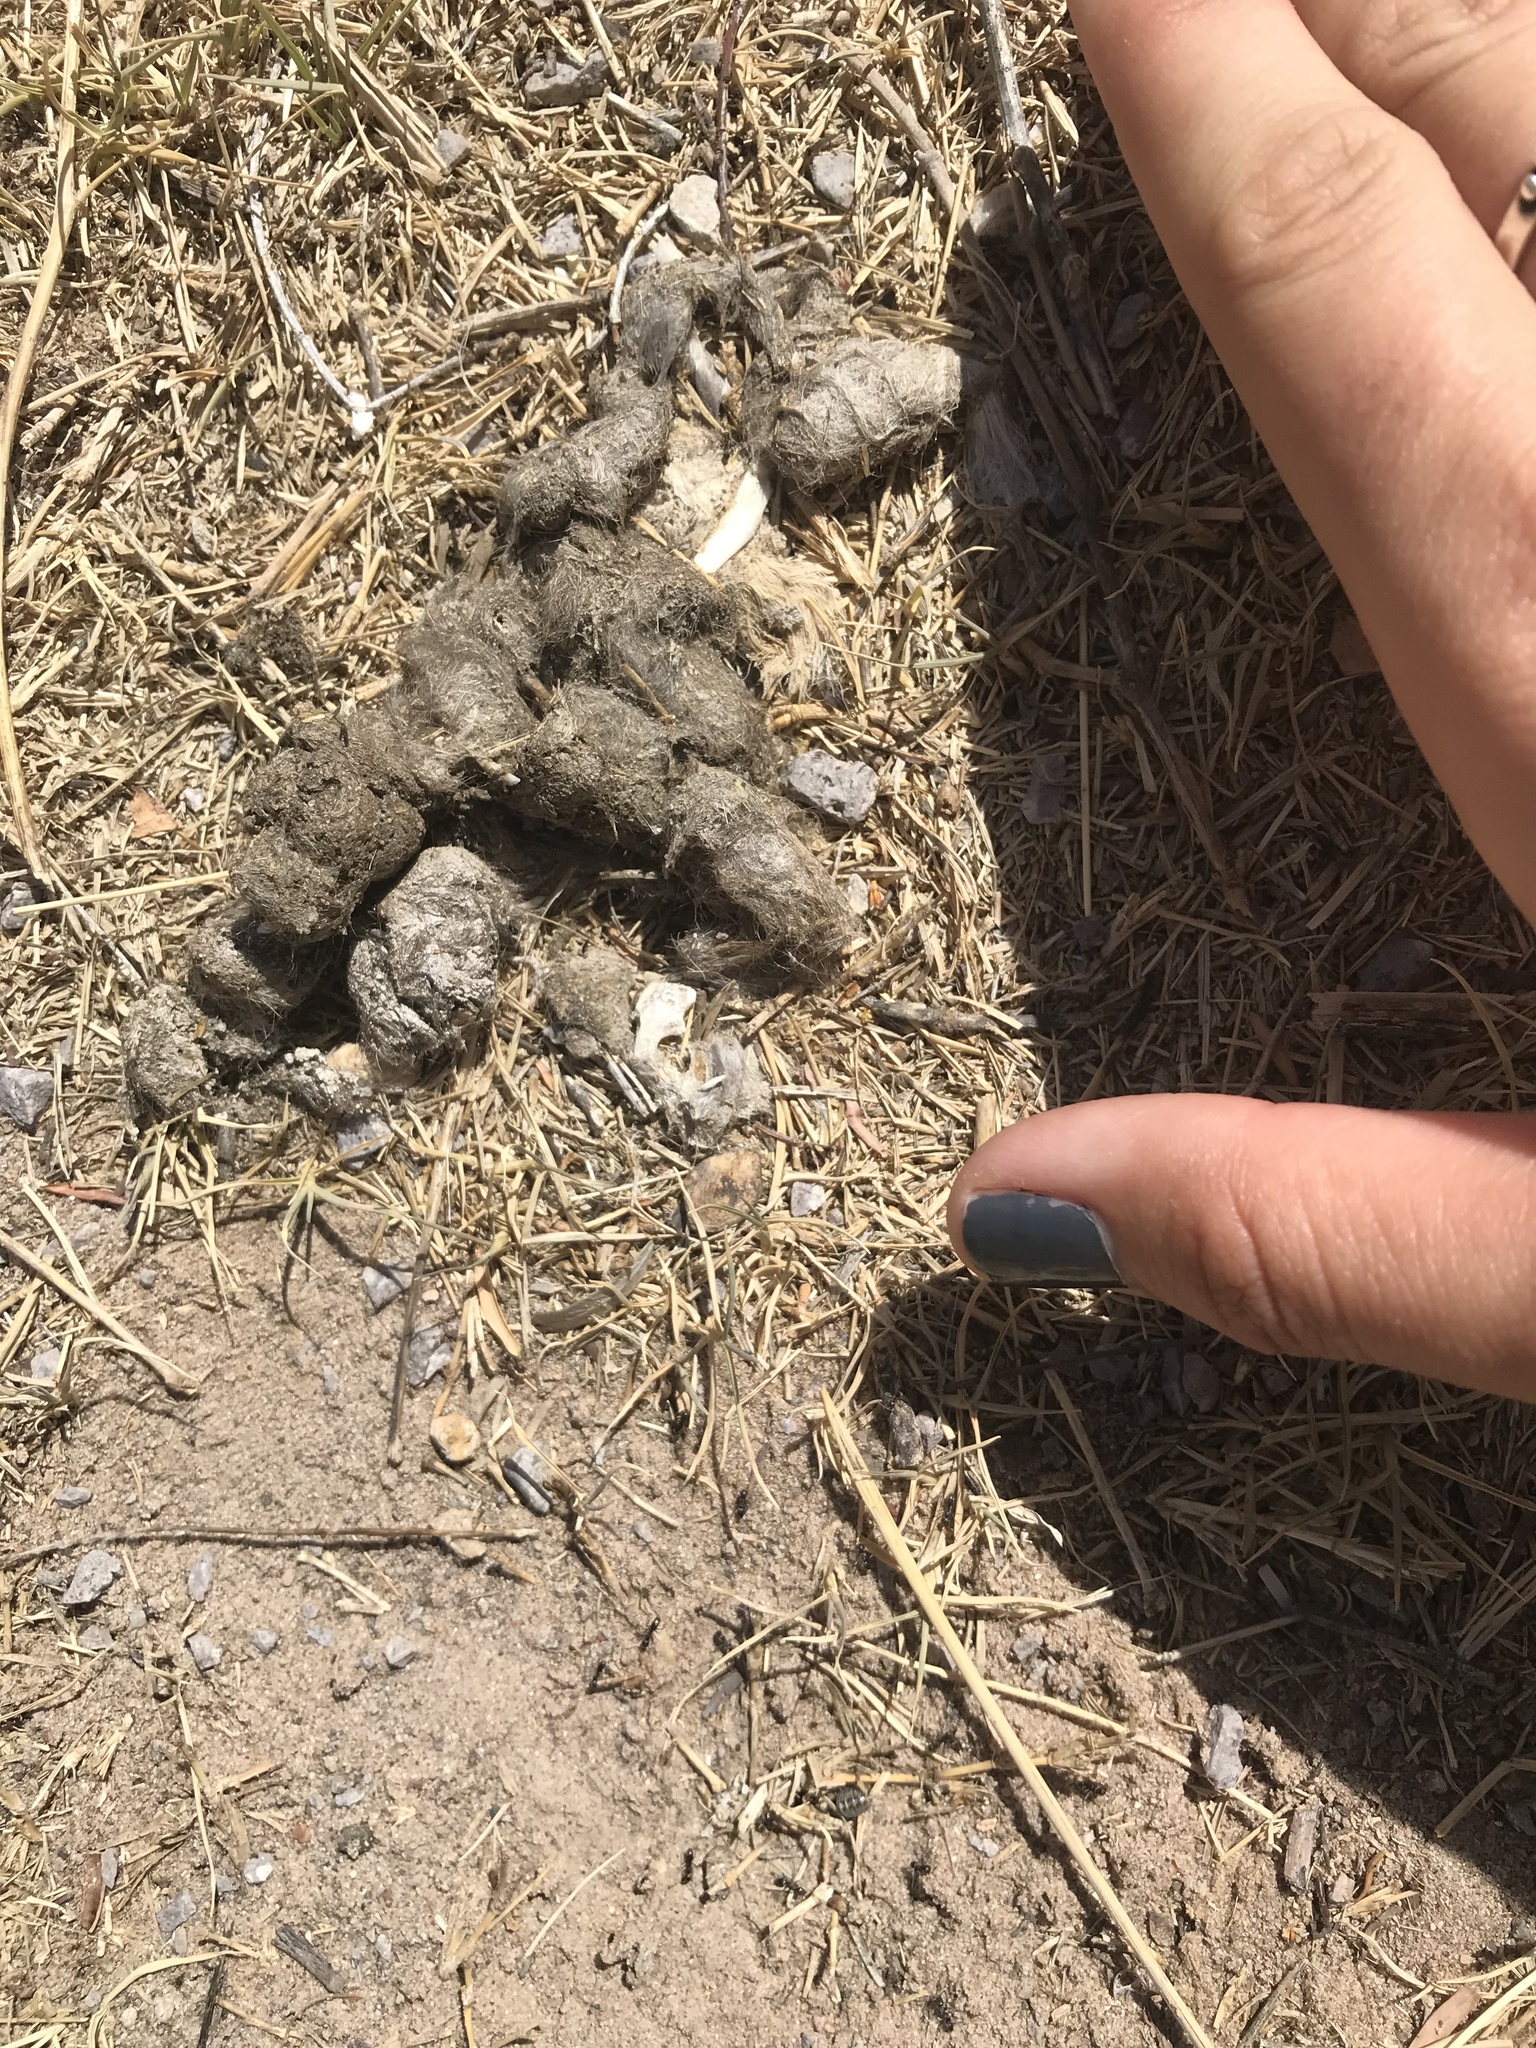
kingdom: Animalia
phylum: Chordata
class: Mammalia
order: Carnivora
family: Canidae
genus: Canis
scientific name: Canis latrans
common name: Coyote
